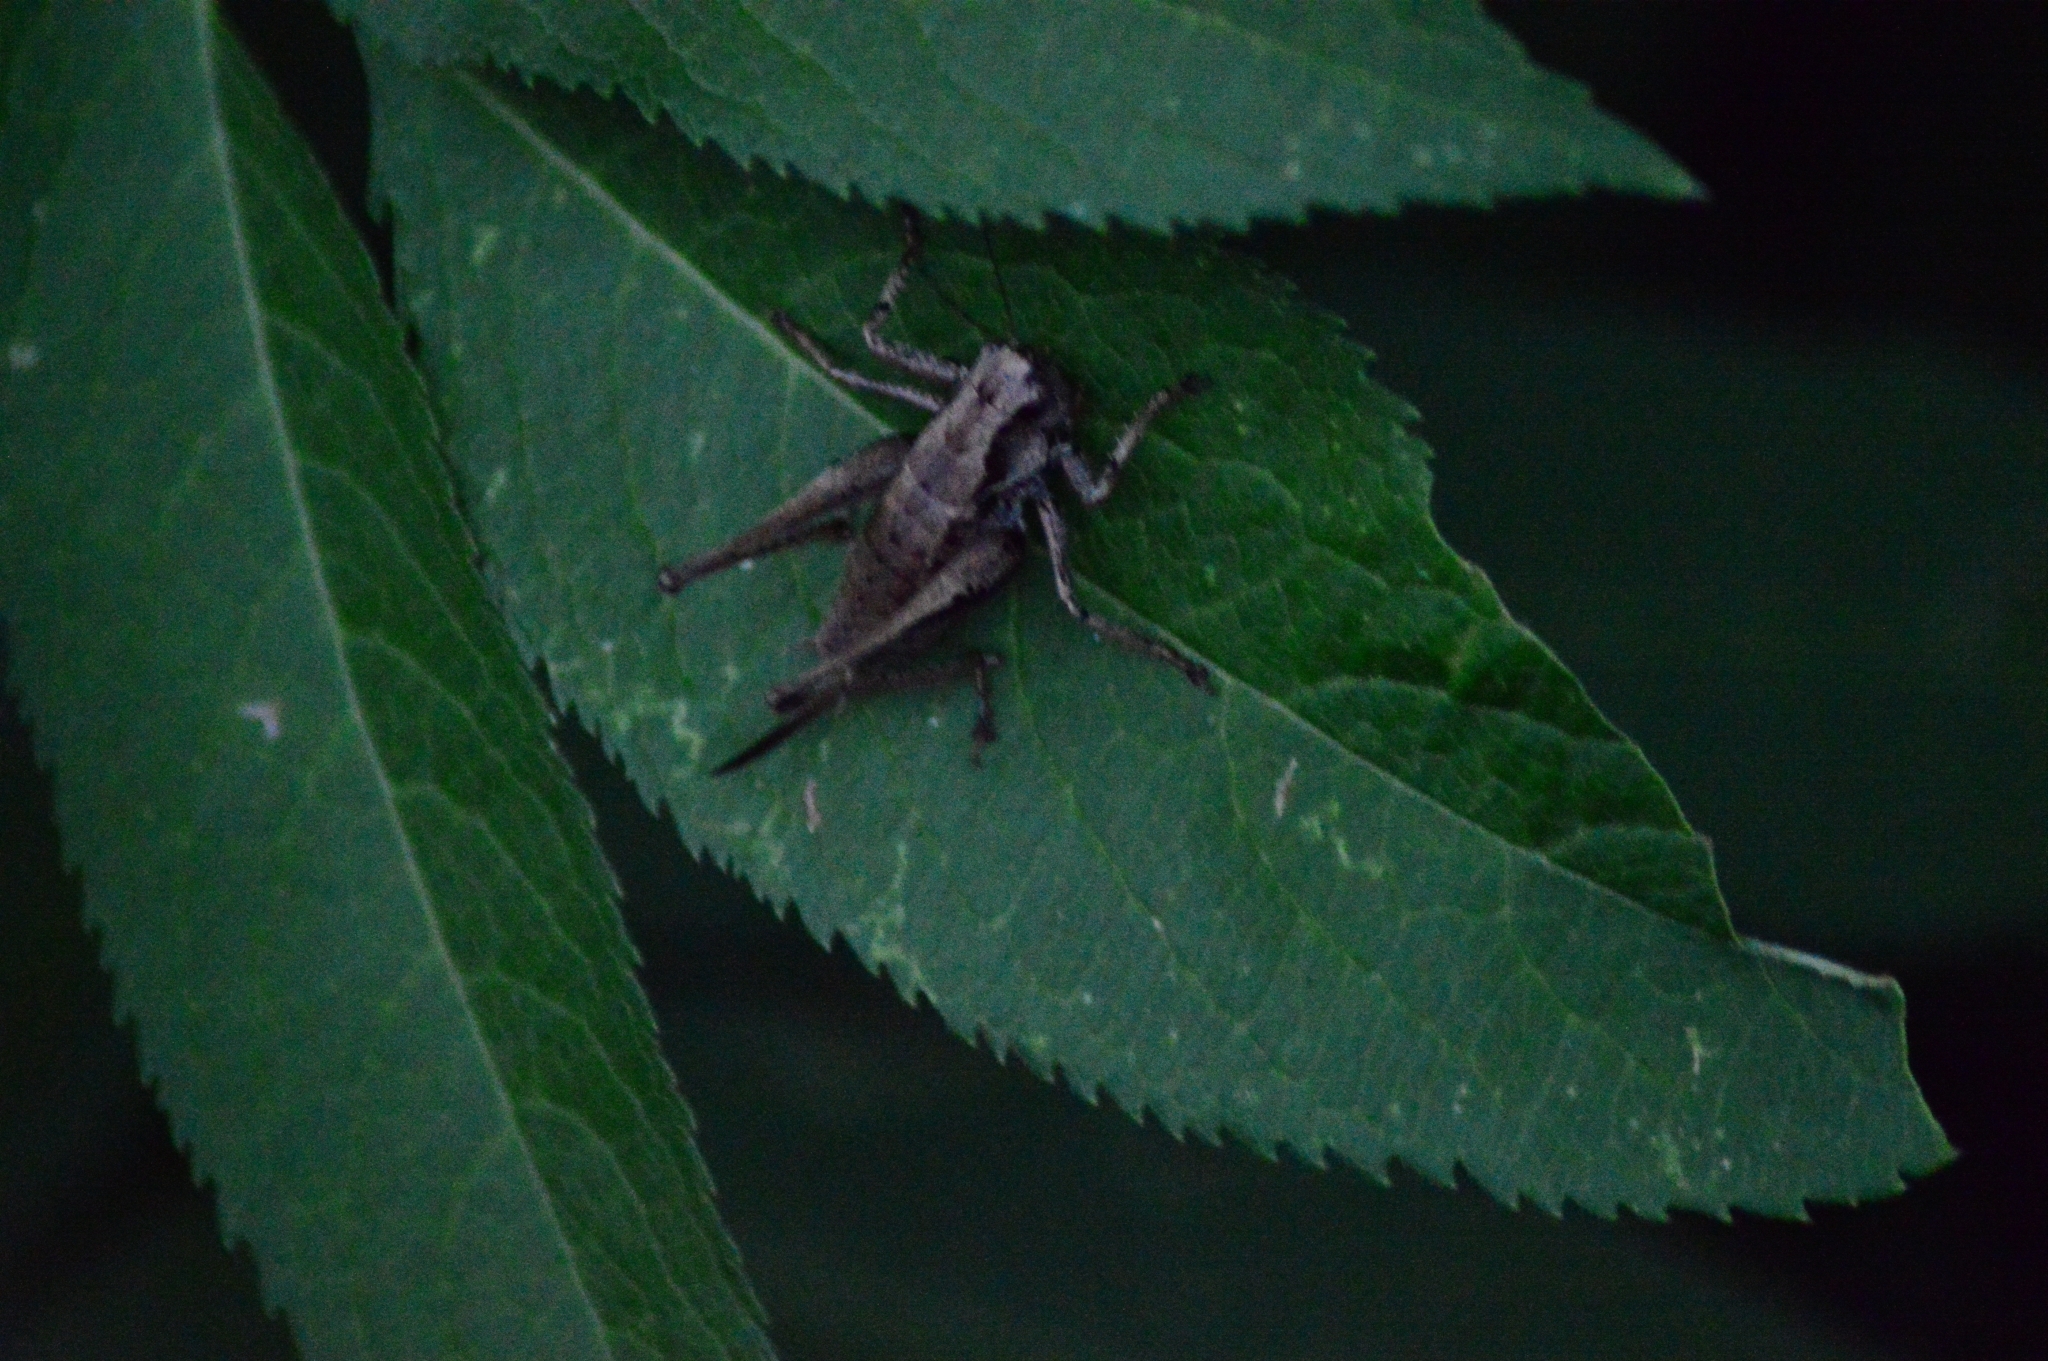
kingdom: Animalia
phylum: Arthropoda
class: Insecta
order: Orthoptera
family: Tettigoniidae
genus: Pholidoptera
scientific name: Pholidoptera griseoaptera
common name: Dark bush-cricket
